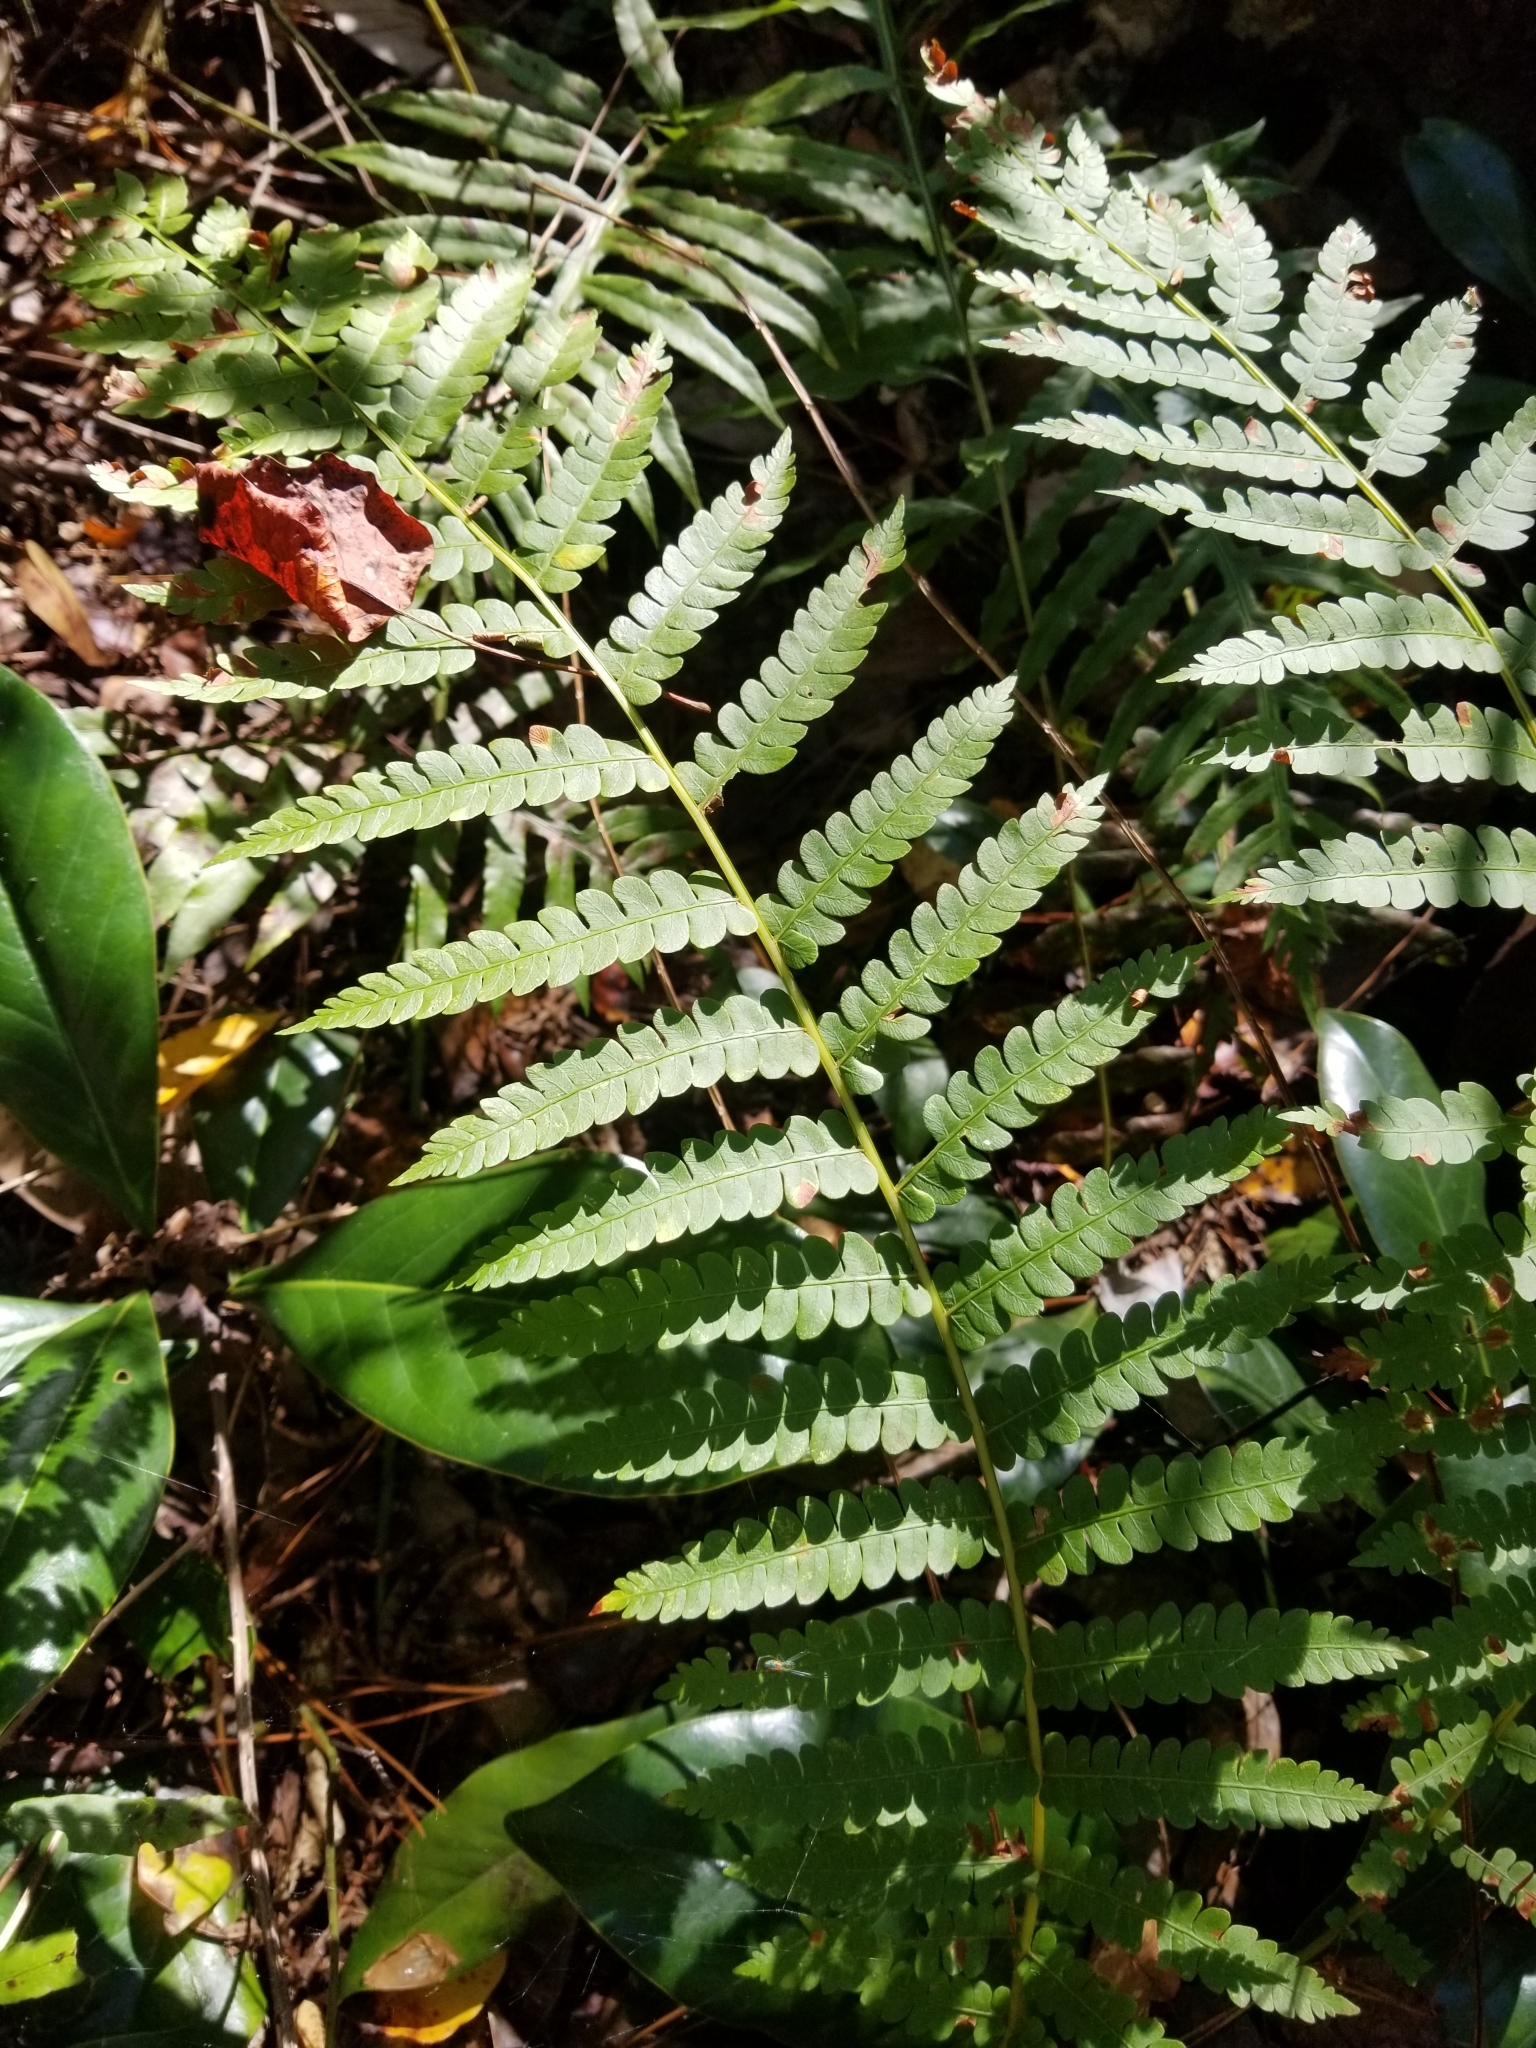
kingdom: Plantae
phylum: Tracheophyta
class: Polypodiopsida
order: Osmundales
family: Osmundaceae
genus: Osmundastrum
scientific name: Osmundastrum cinnamomeum
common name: Cinnamon fern
